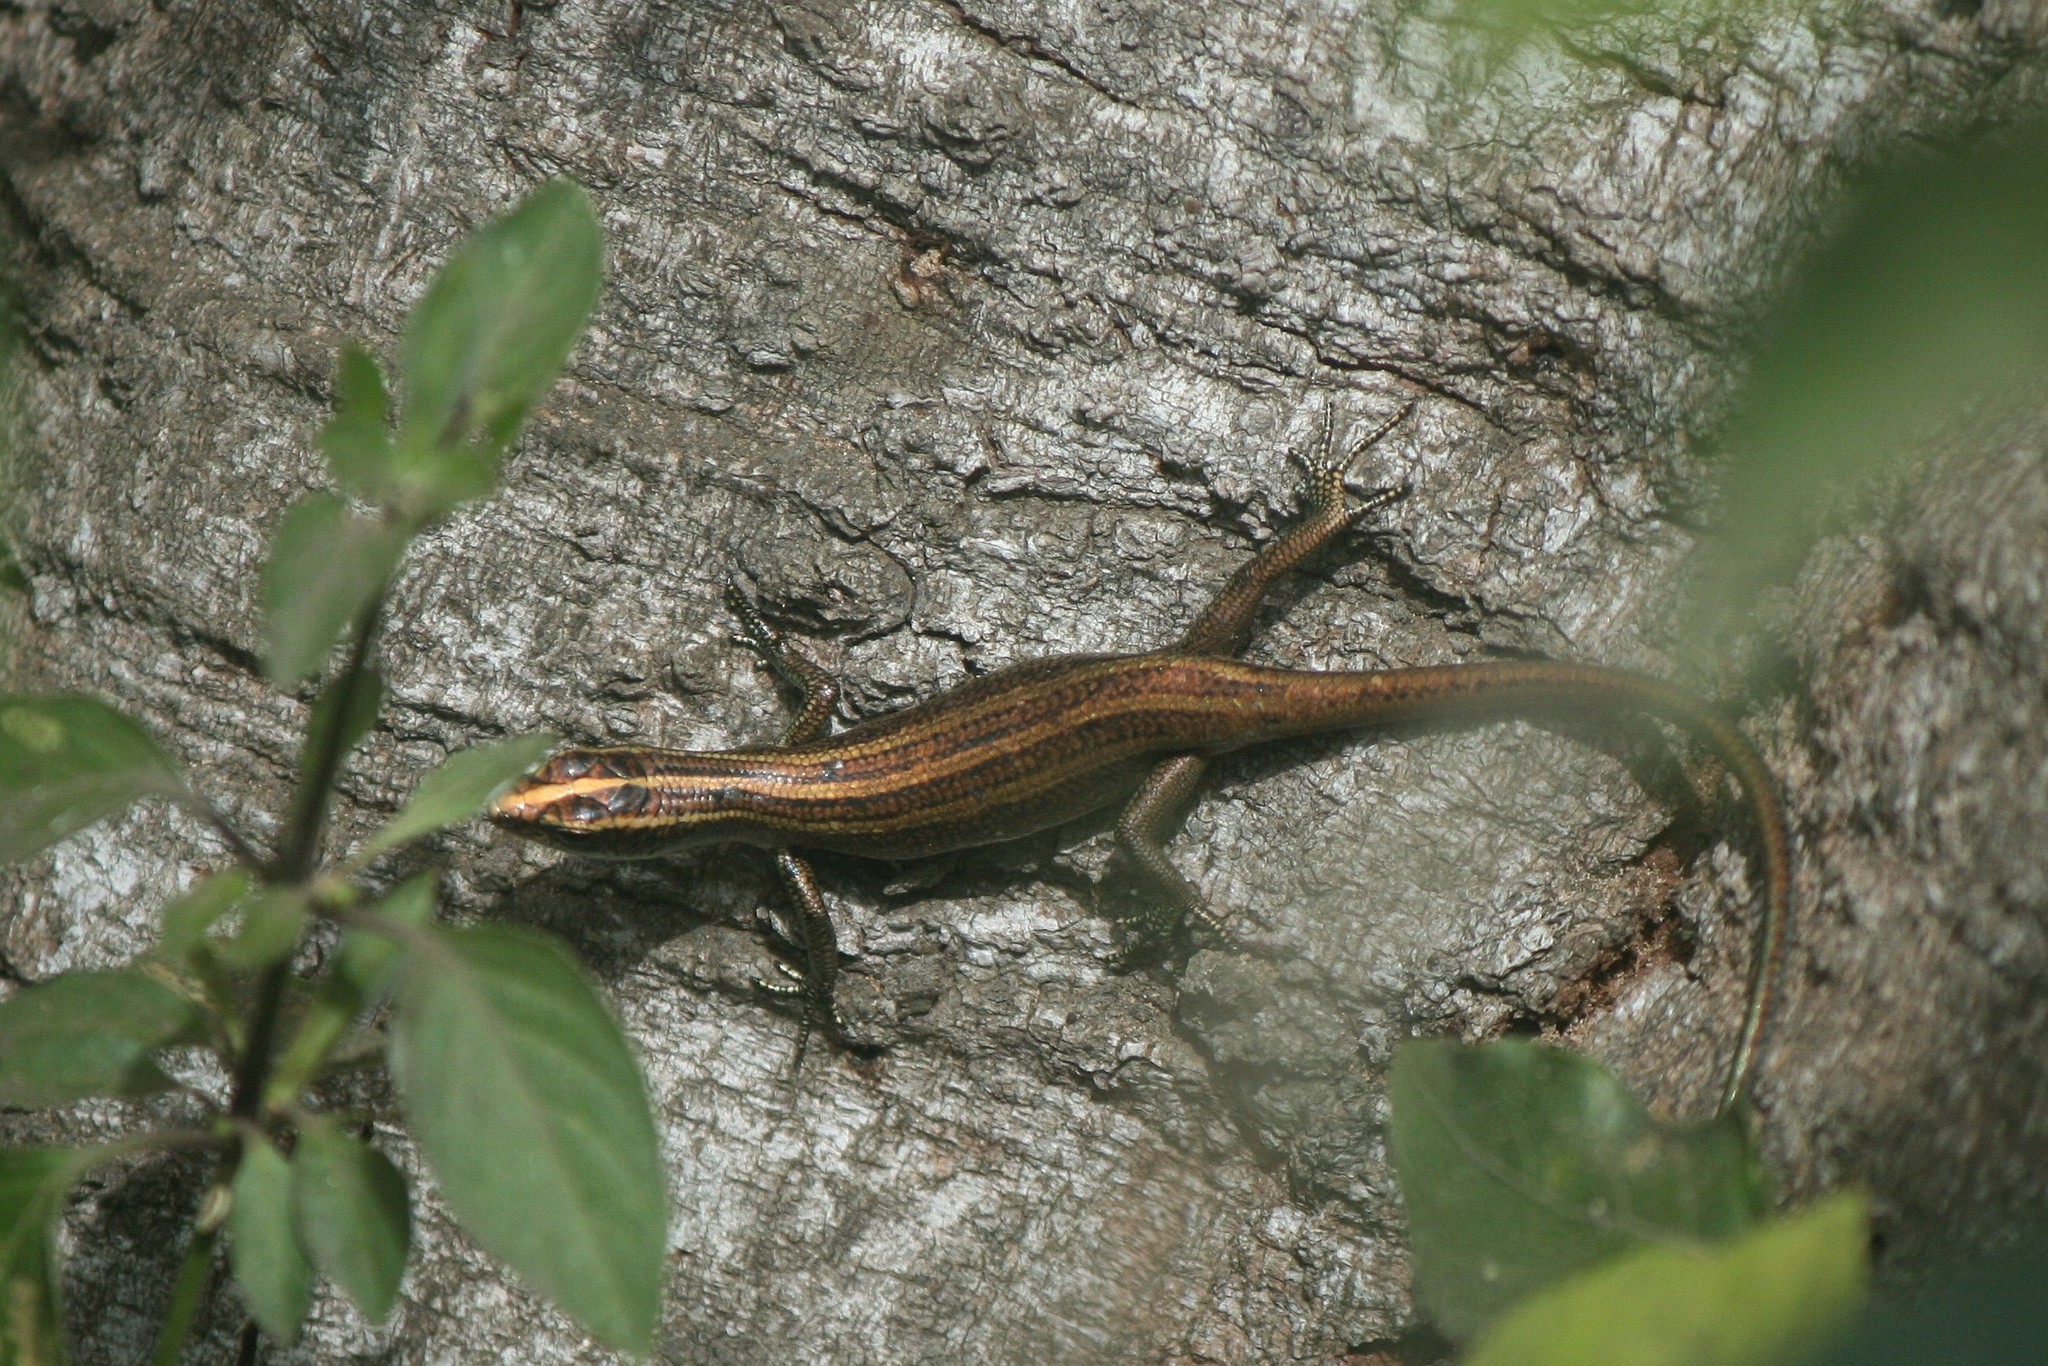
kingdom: Animalia
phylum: Chordata
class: Squamata
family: Scincidae
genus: Emoia
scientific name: Emoia impar
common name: Azure-tailed skink
